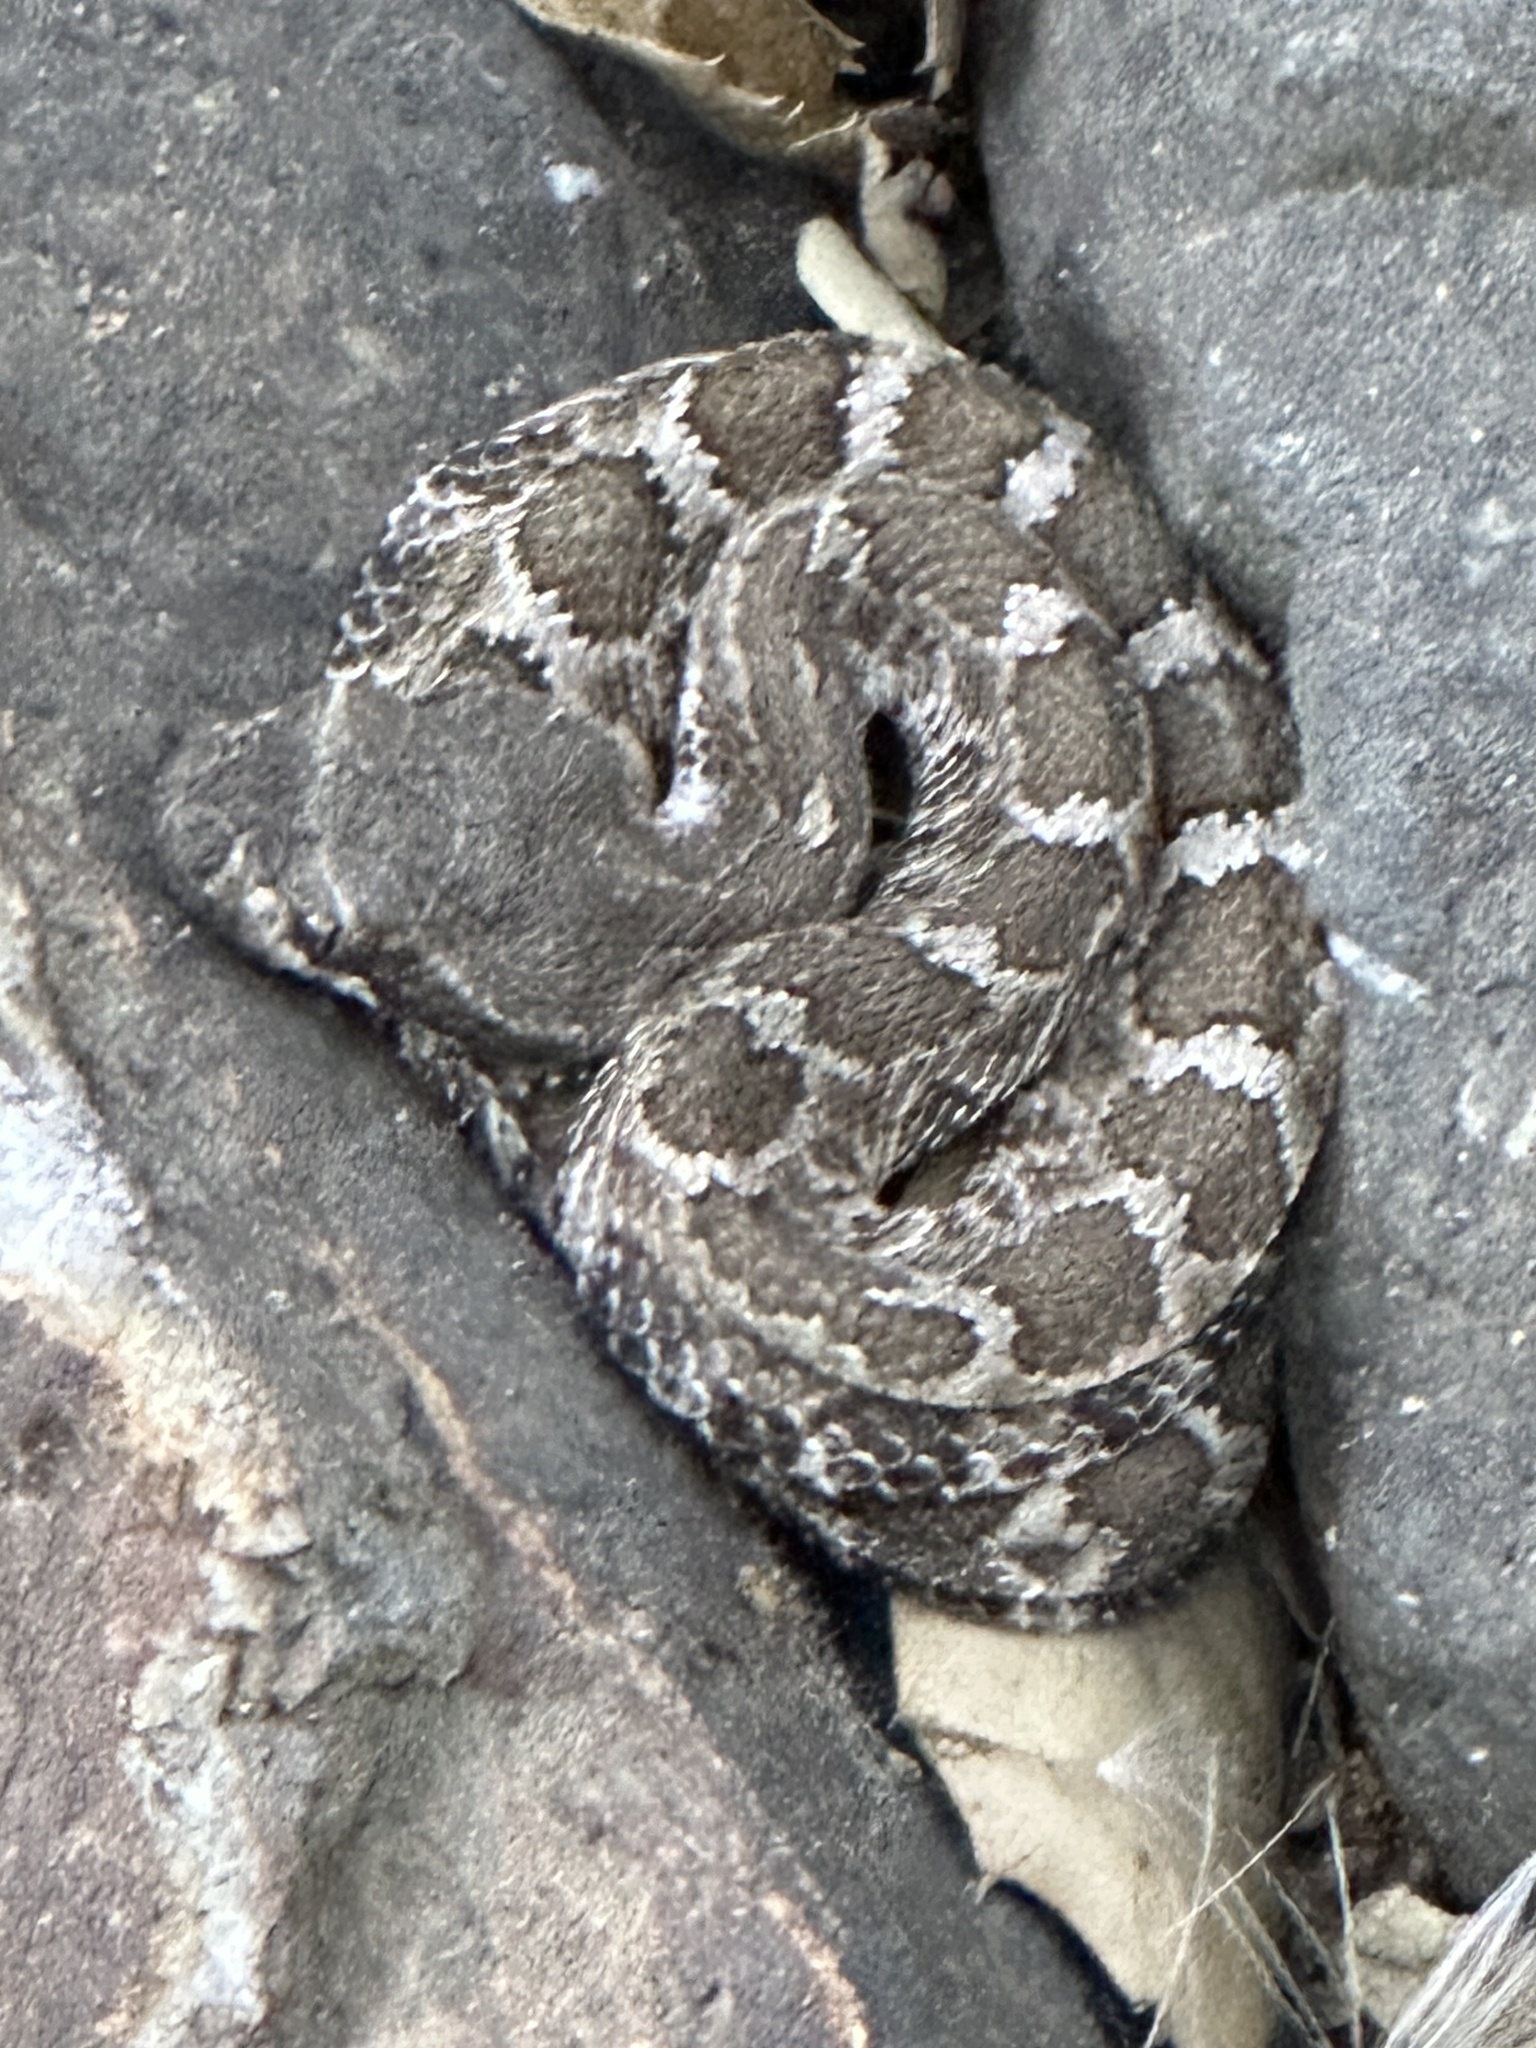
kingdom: Animalia
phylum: Chordata
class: Squamata
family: Viperidae
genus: Crotalus
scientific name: Crotalus oreganus
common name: Abyssus
